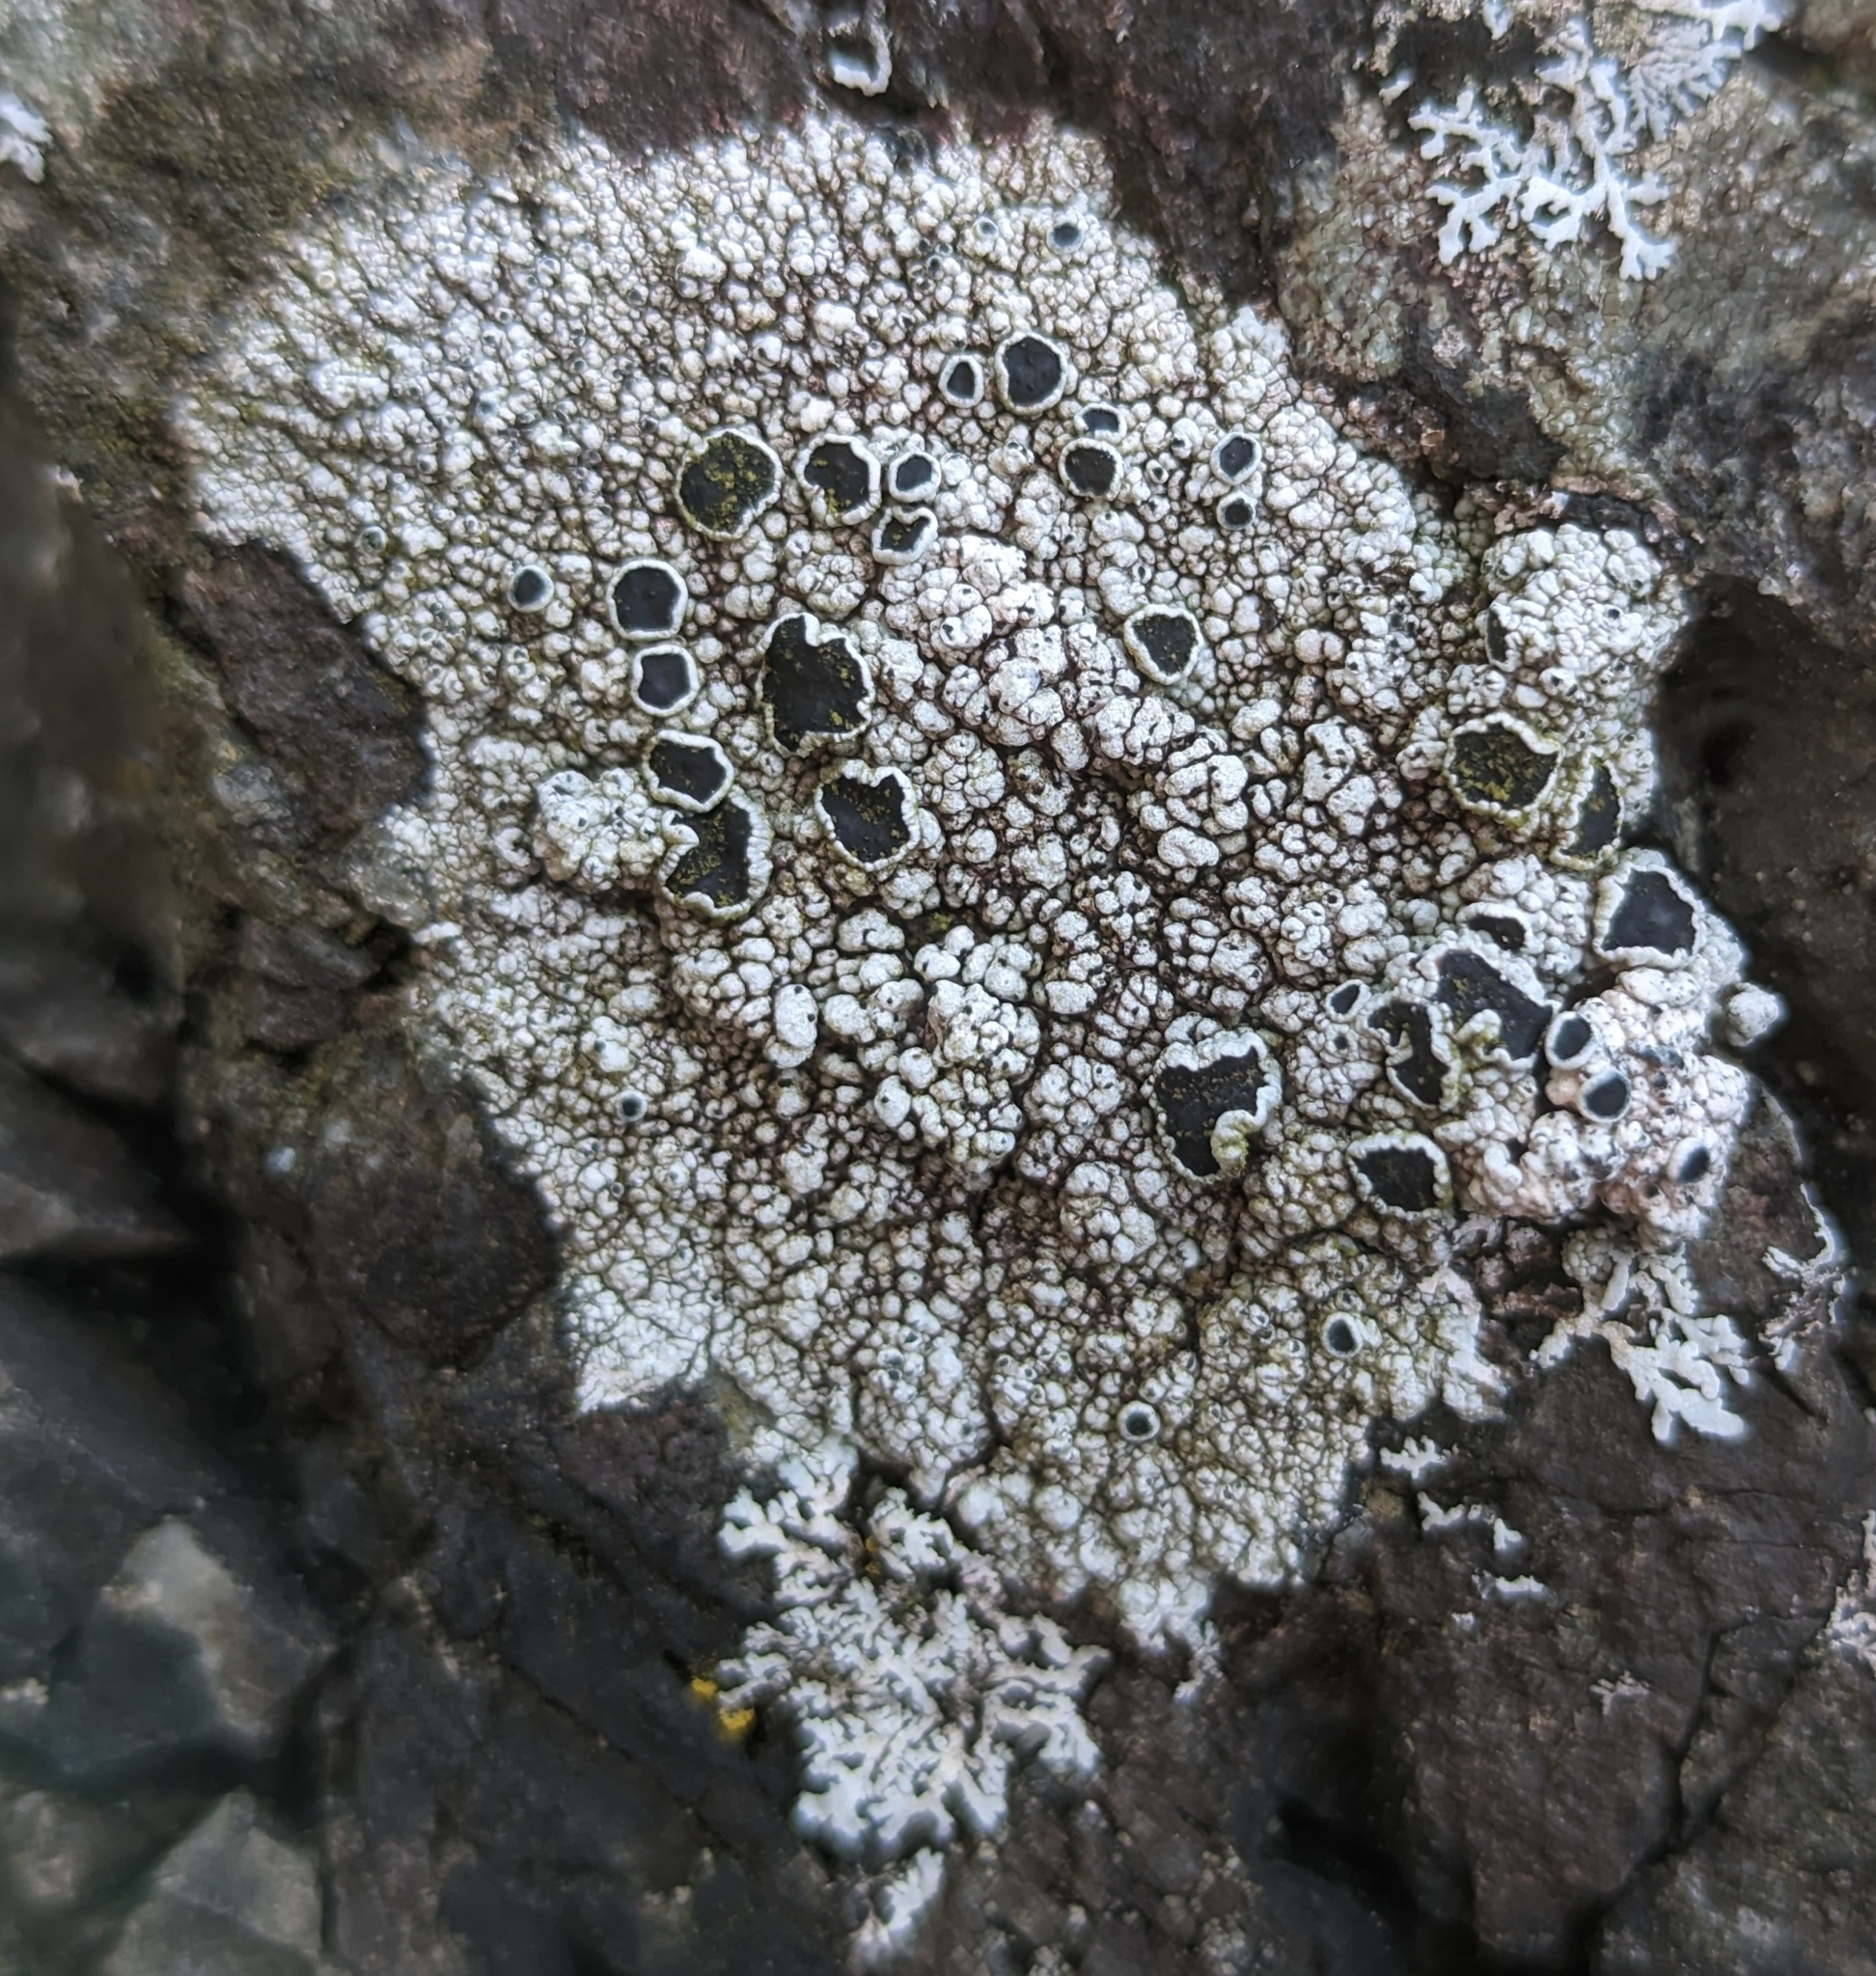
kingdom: Fungi
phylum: Ascomycota
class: Lecanoromycetes
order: Lecanorales
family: Tephromelataceae
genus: Tephromela
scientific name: Tephromela atra
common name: Black shields
